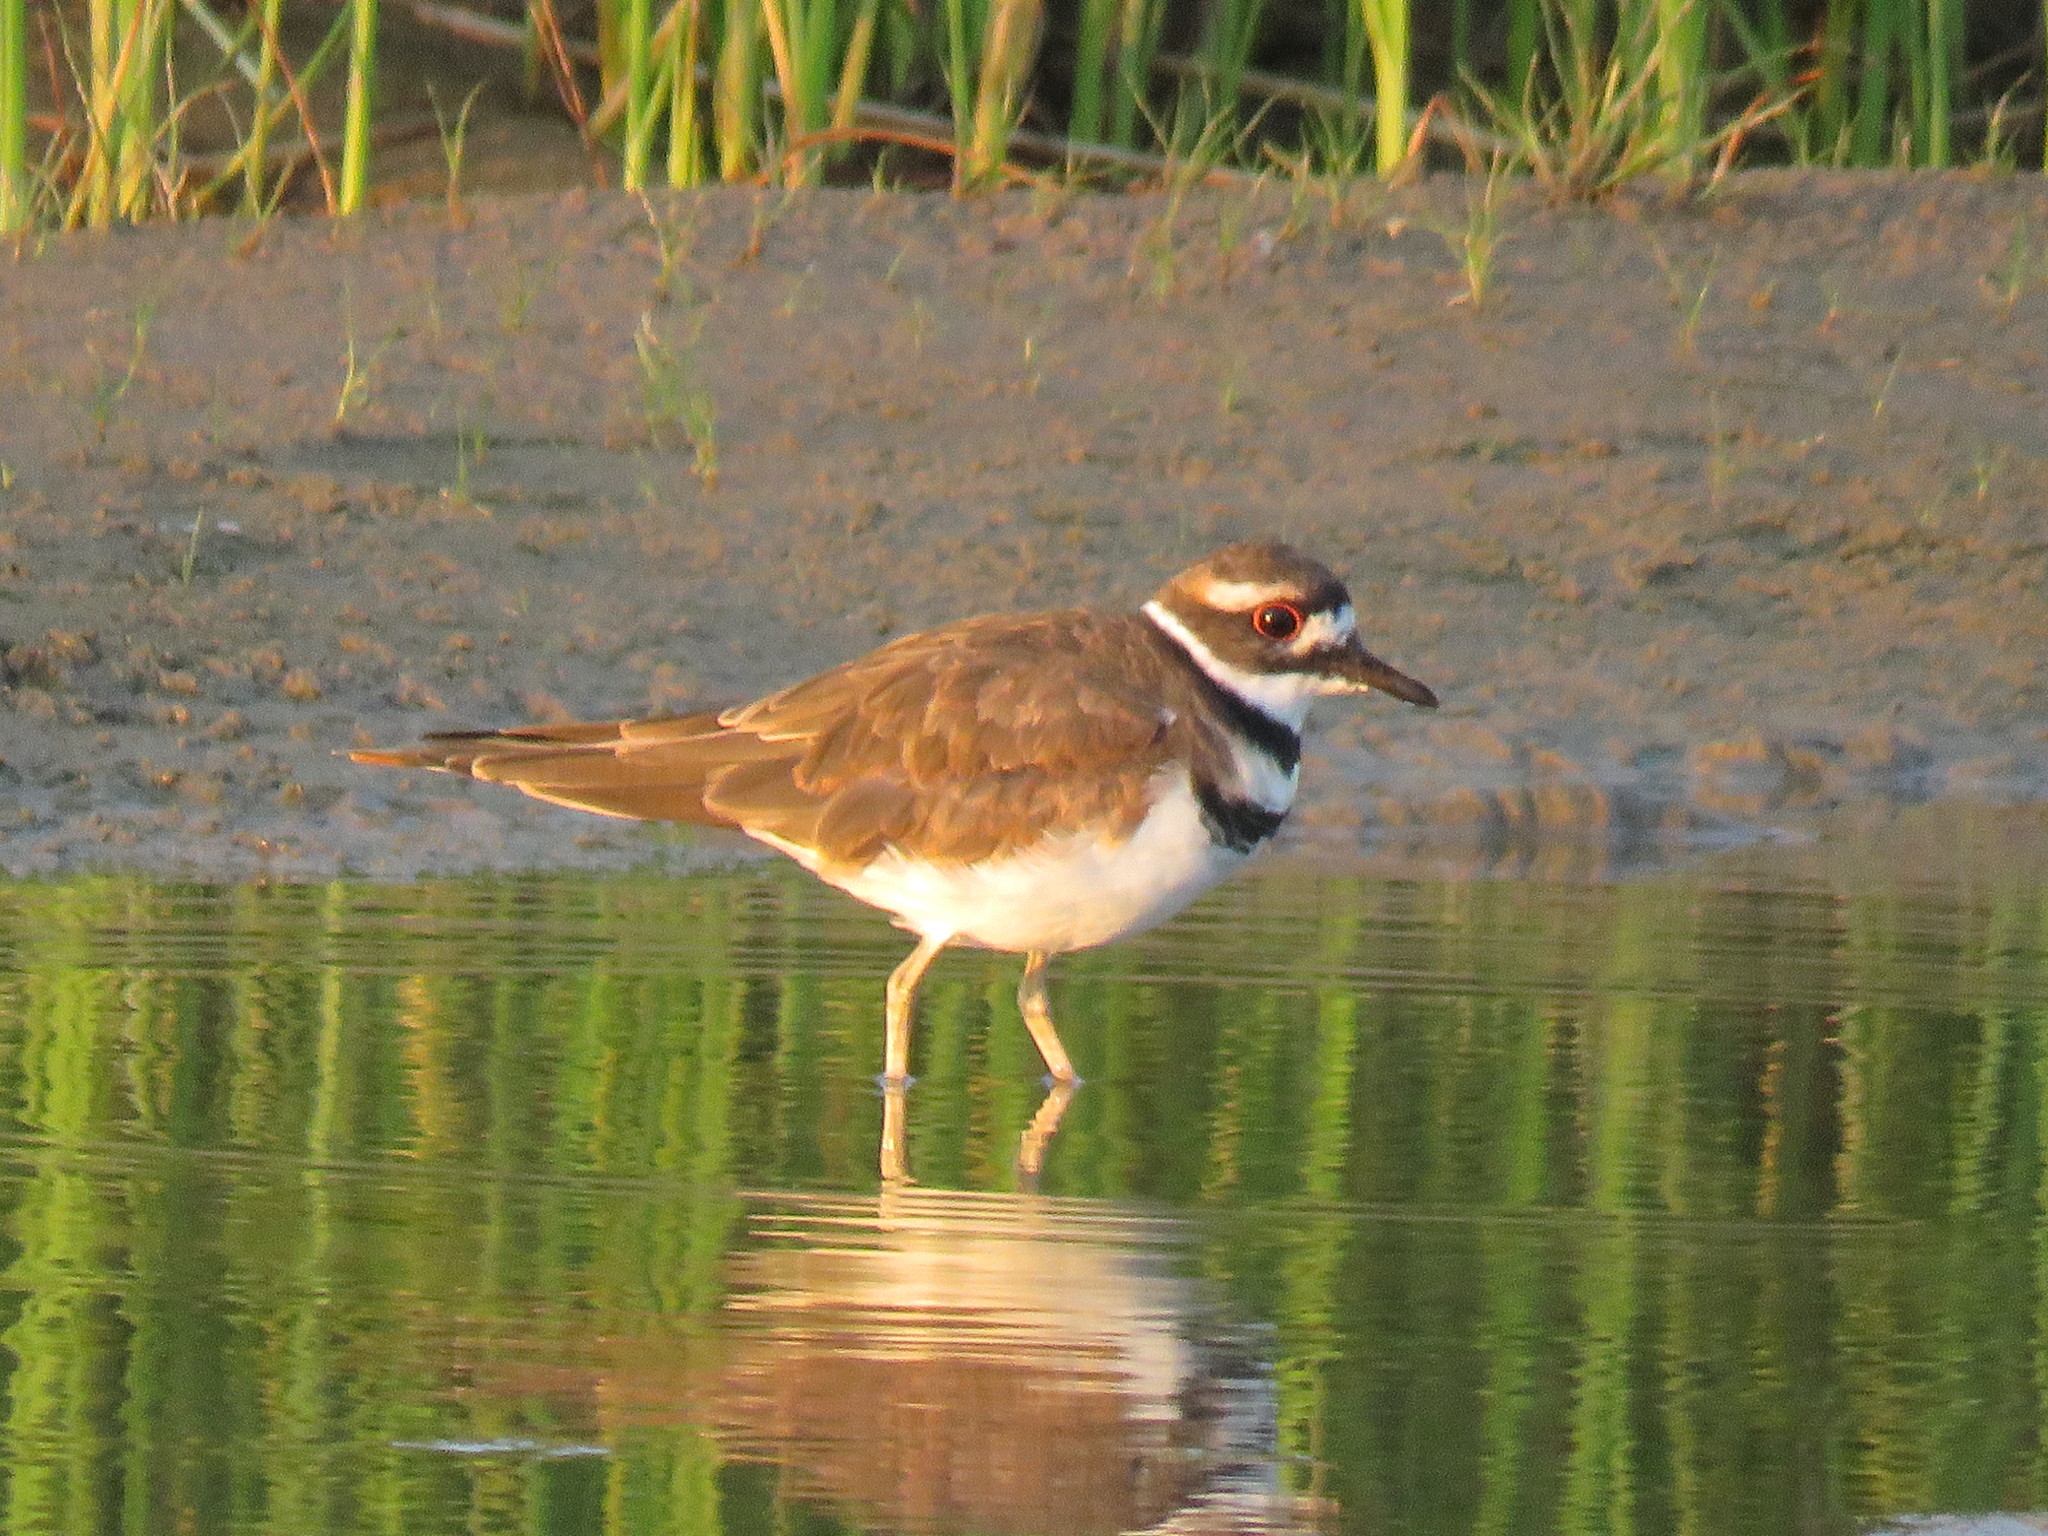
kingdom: Animalia
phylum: Chordata
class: Aves
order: Charadriiformes
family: Charadriidae
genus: Charadrius
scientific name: Charadrius vociferus
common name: Killdeer
